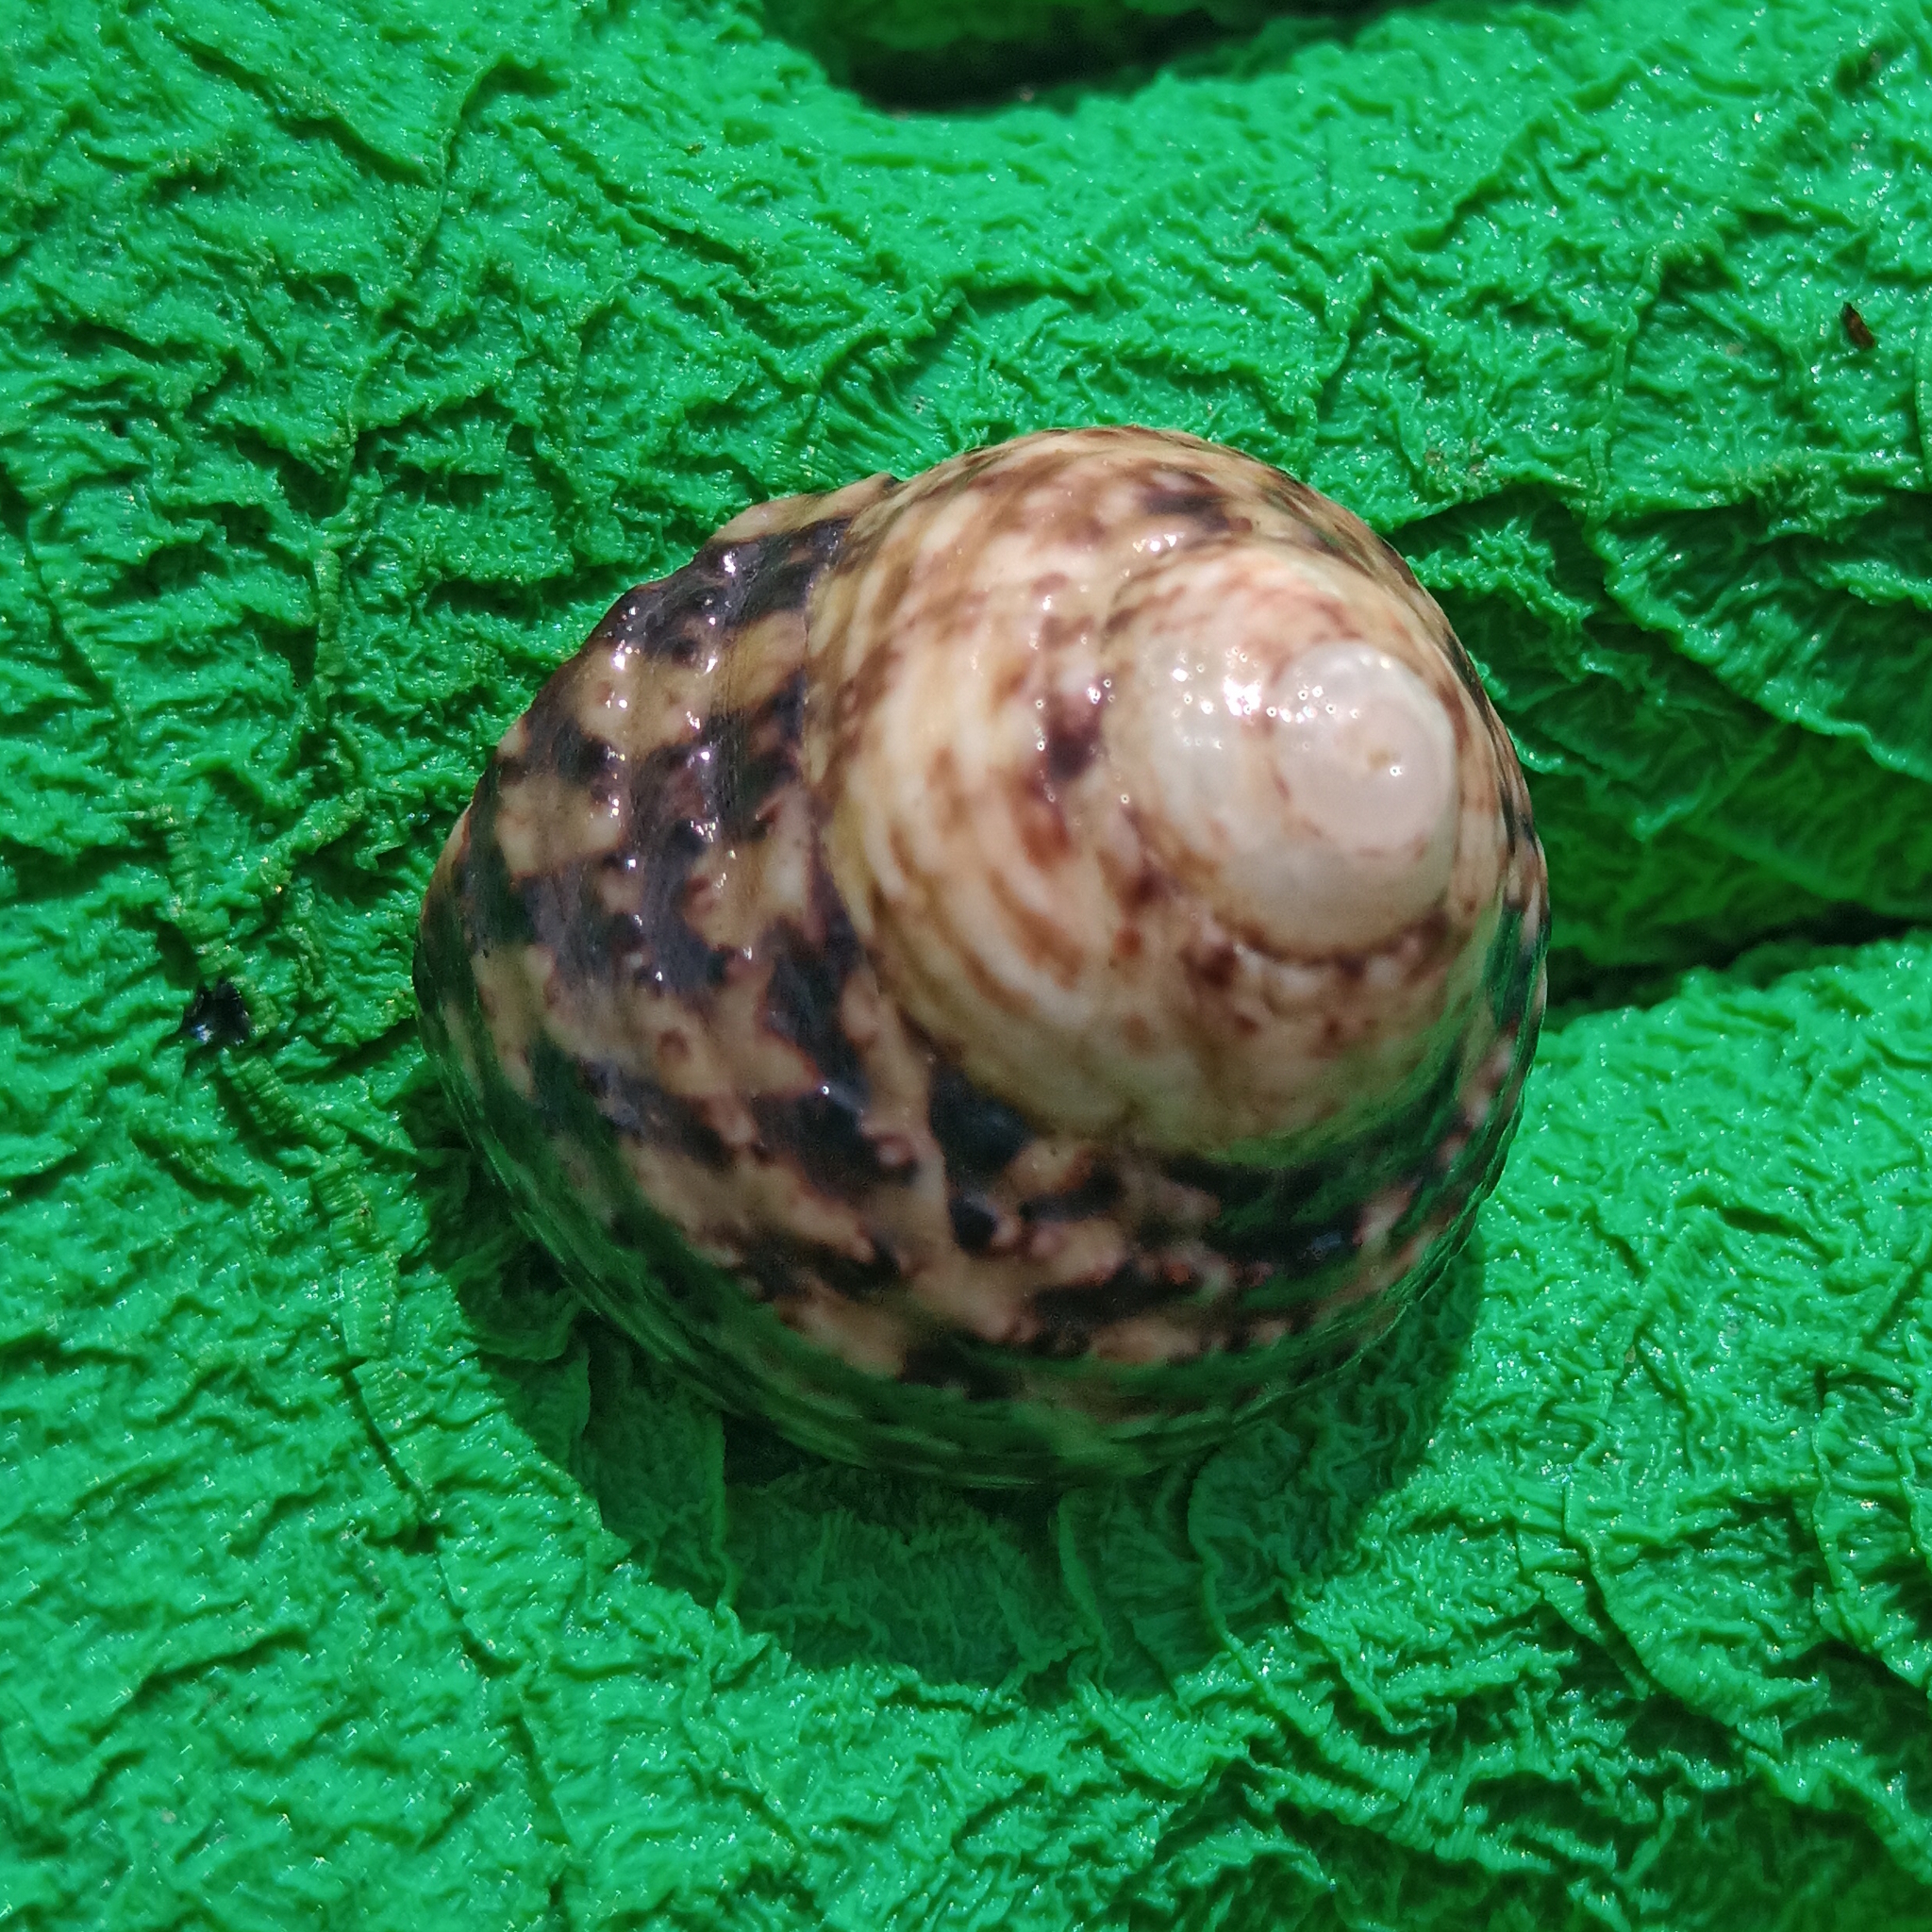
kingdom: Animalia
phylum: Mollusca
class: Gastropoda
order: Trochida
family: Tegulidae
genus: Agathistoma
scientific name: Agathistoma viridulum
